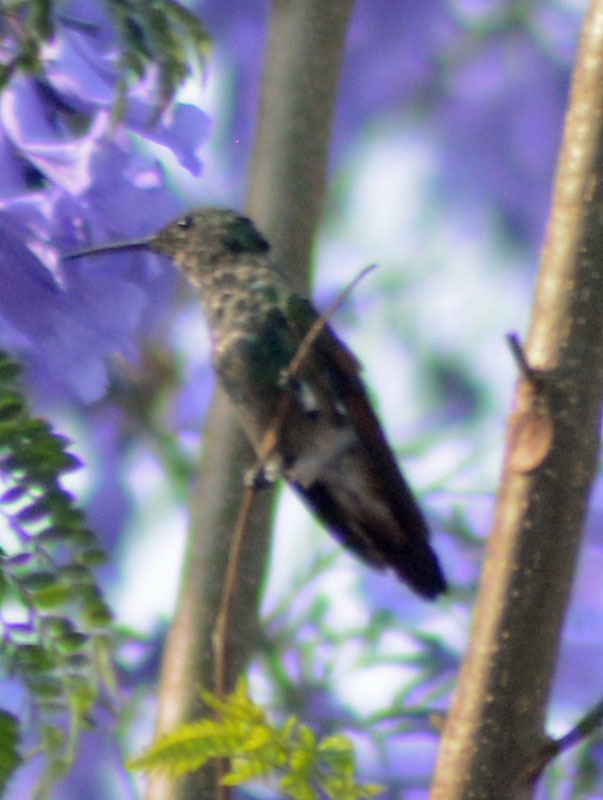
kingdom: Animalia
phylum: Chordata
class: Aves
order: Apodiformes
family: Trochilidae
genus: Saucerottia
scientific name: Saucerottia beryllina
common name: Berylline hummingbird
